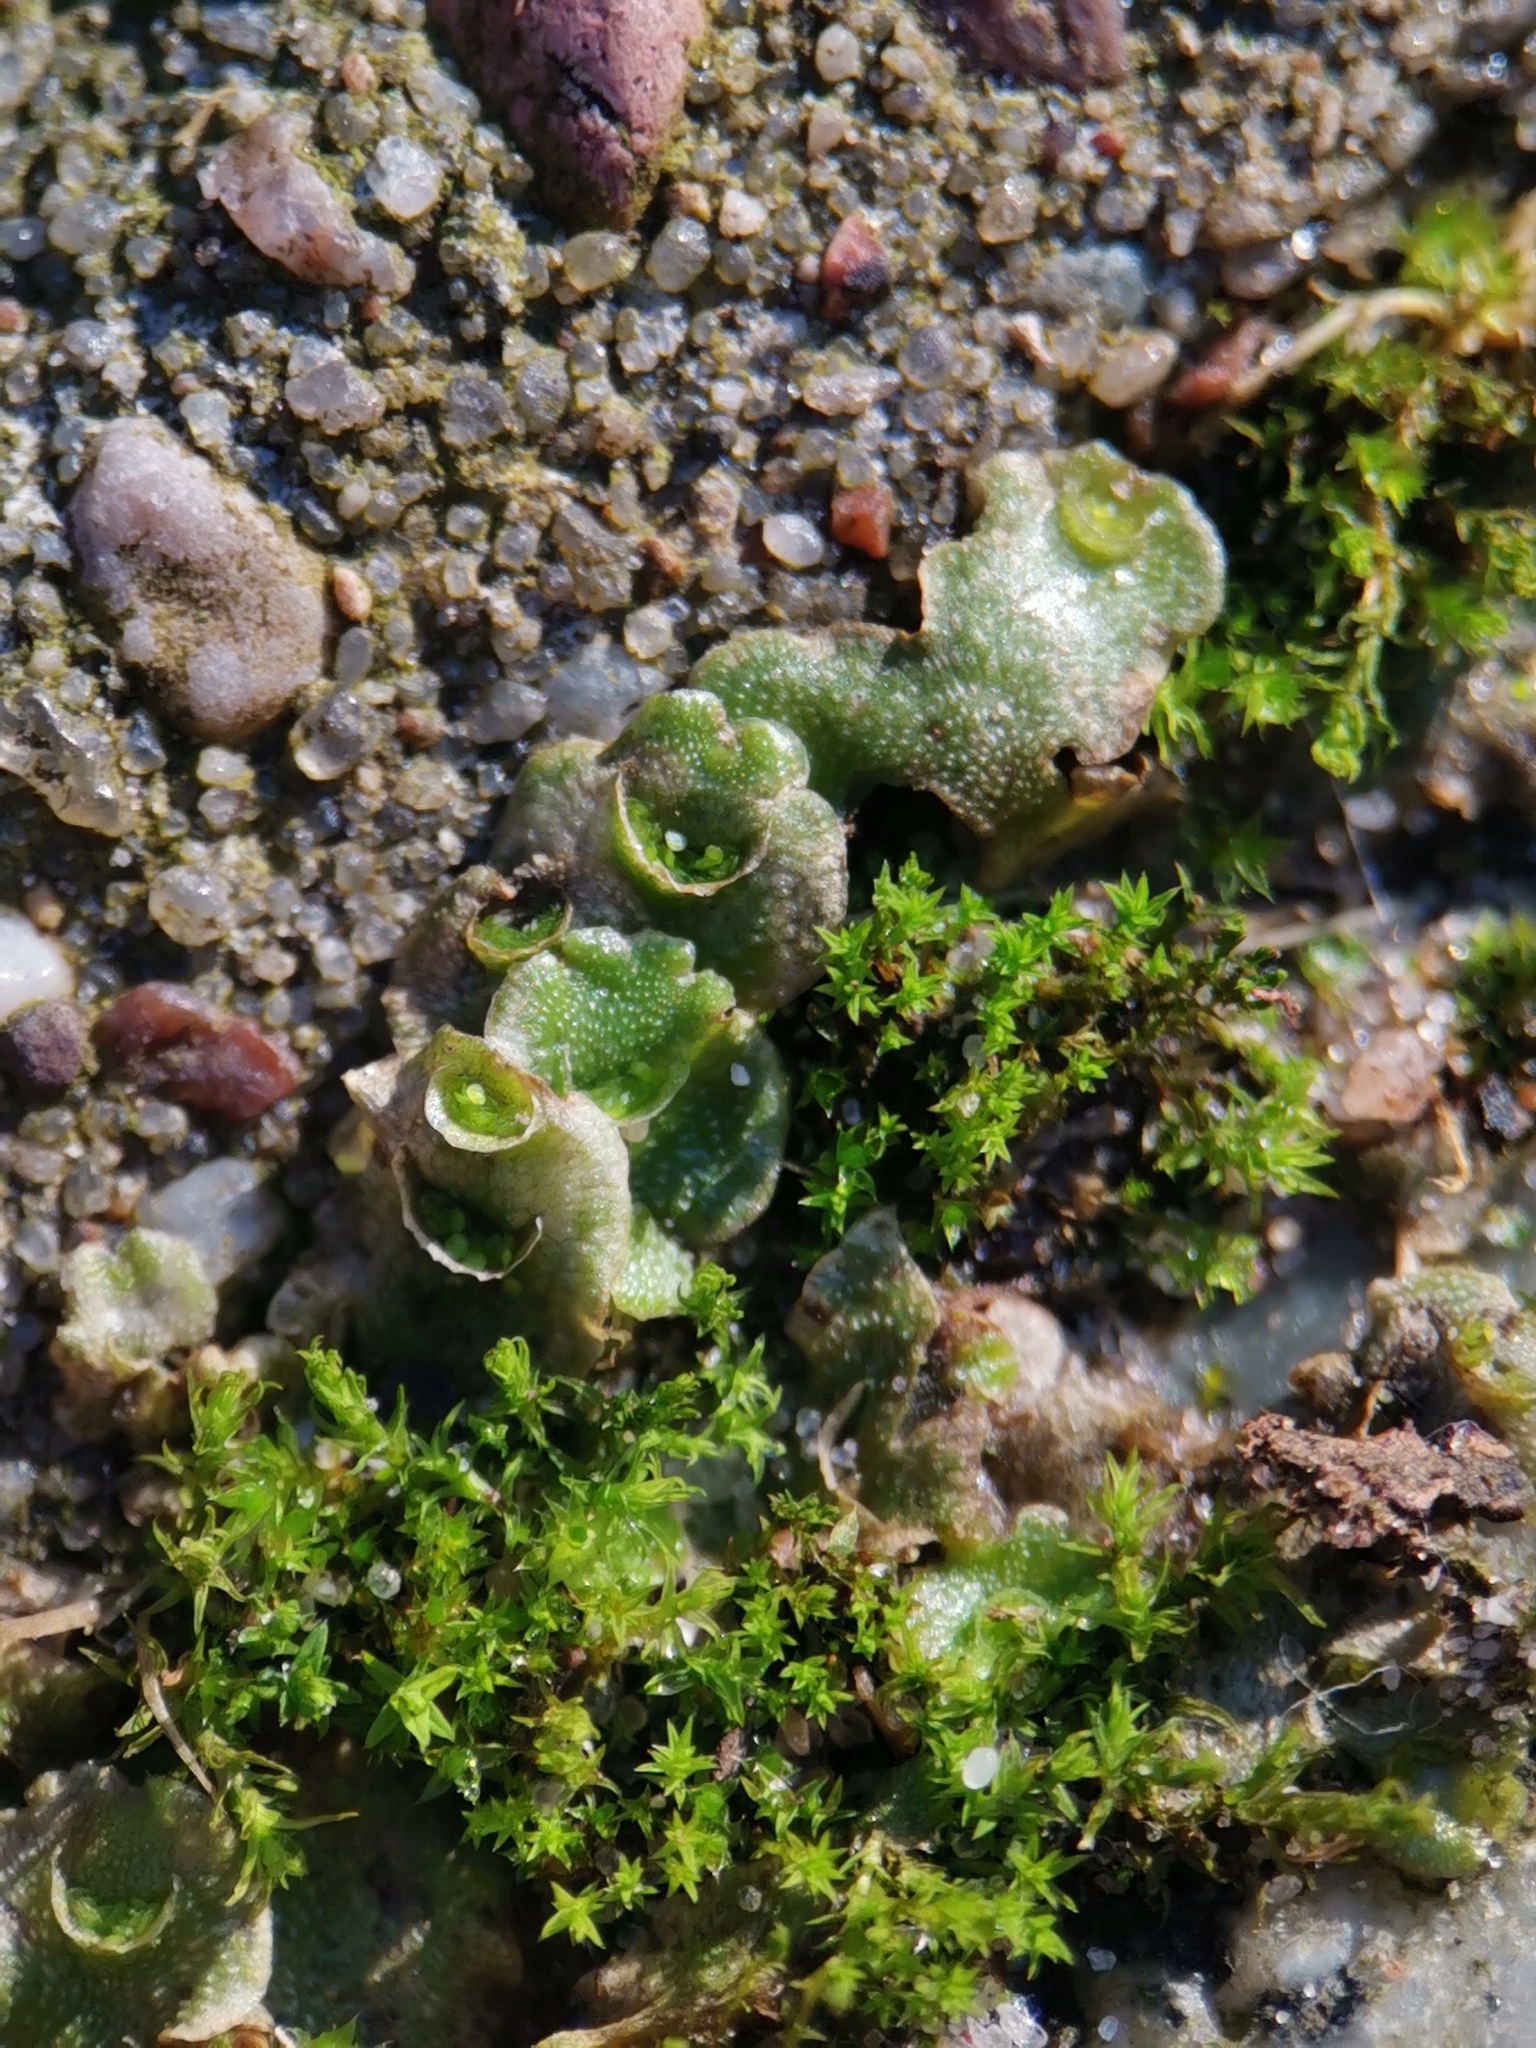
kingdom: Plantae
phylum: Marchantiophyta
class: Marchantiopsida
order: Lunulariales
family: Lunulariaceae
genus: Lunularia
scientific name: Lunularia cruciata
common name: Crescent-cup liverwort
